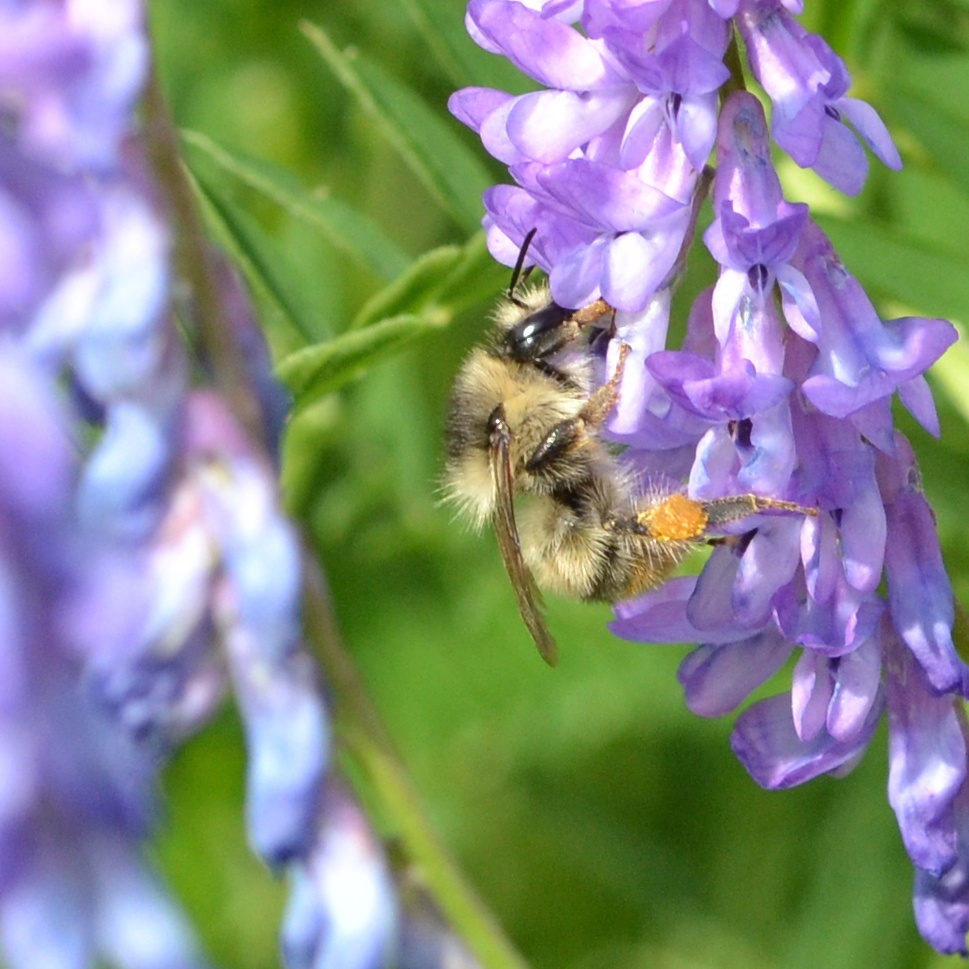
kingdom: Animalia
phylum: Arthropoda
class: Insecta
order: Hymenoptera
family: Apidae
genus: Bombus
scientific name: Bombus sylvarum
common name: Shrill carder bee
